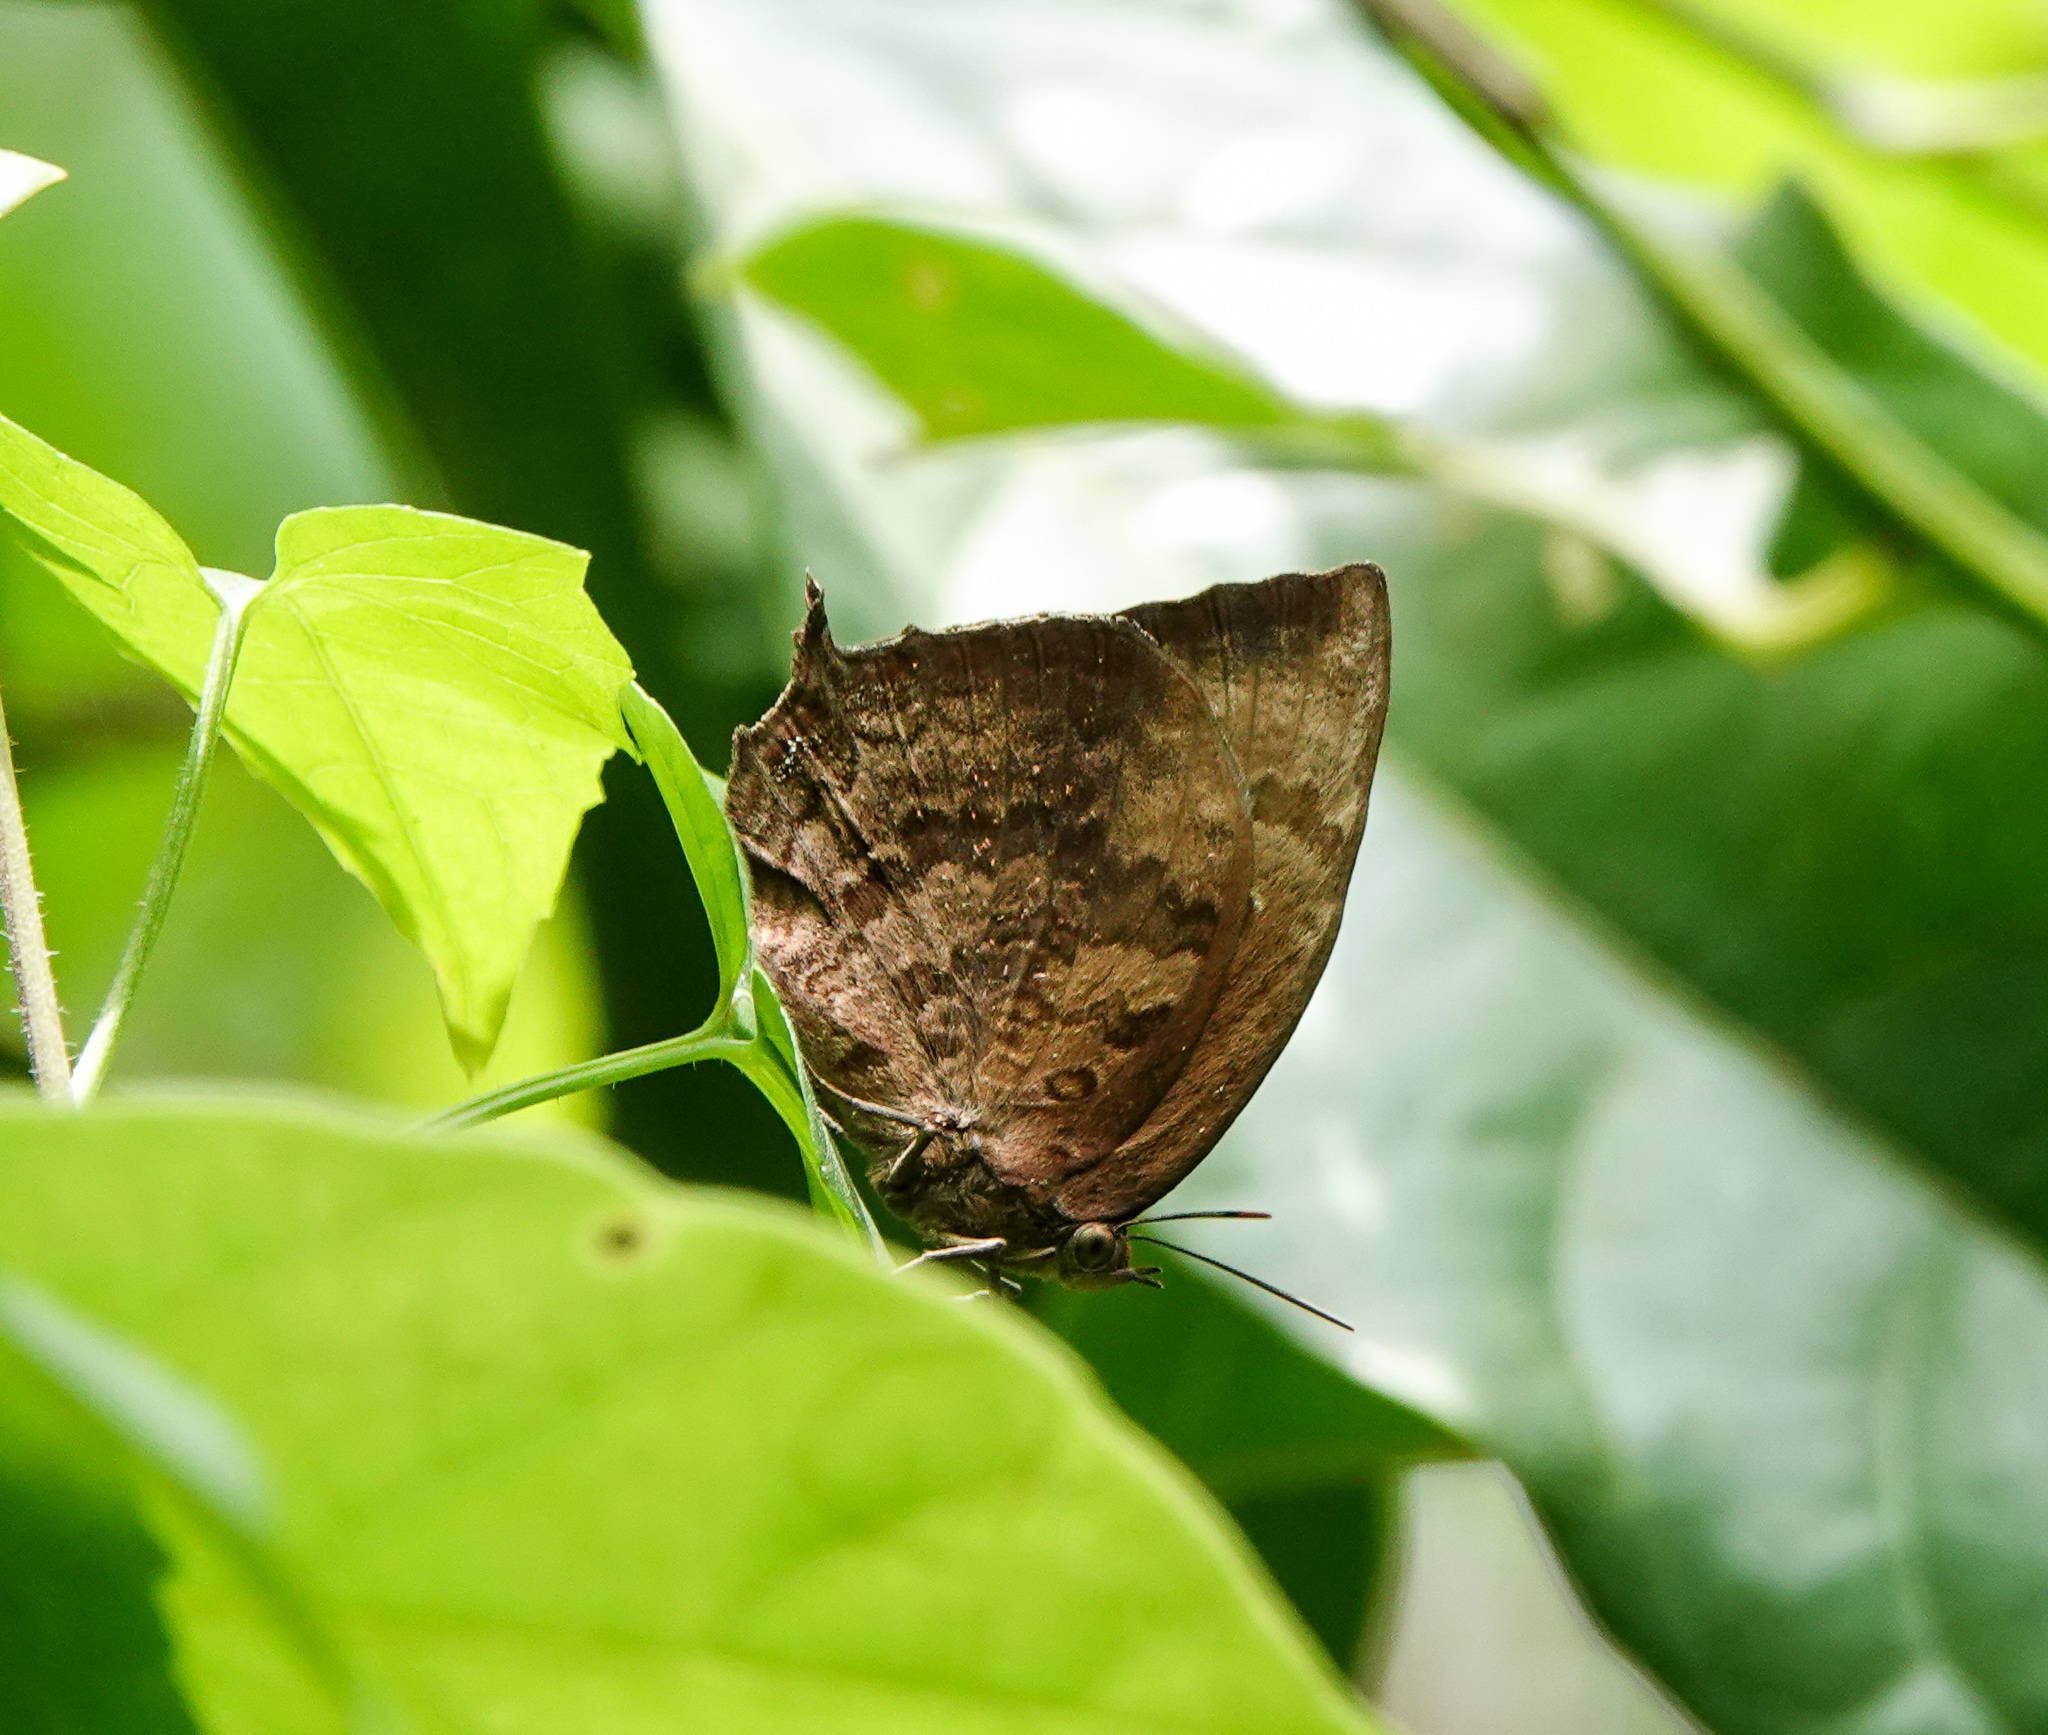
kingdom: Animalia
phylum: Arthropoda
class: Insecta
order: Lepidoptera
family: Lycaenidae
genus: Arhopala
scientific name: Arhopala centaurus
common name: Dull oak-blue
